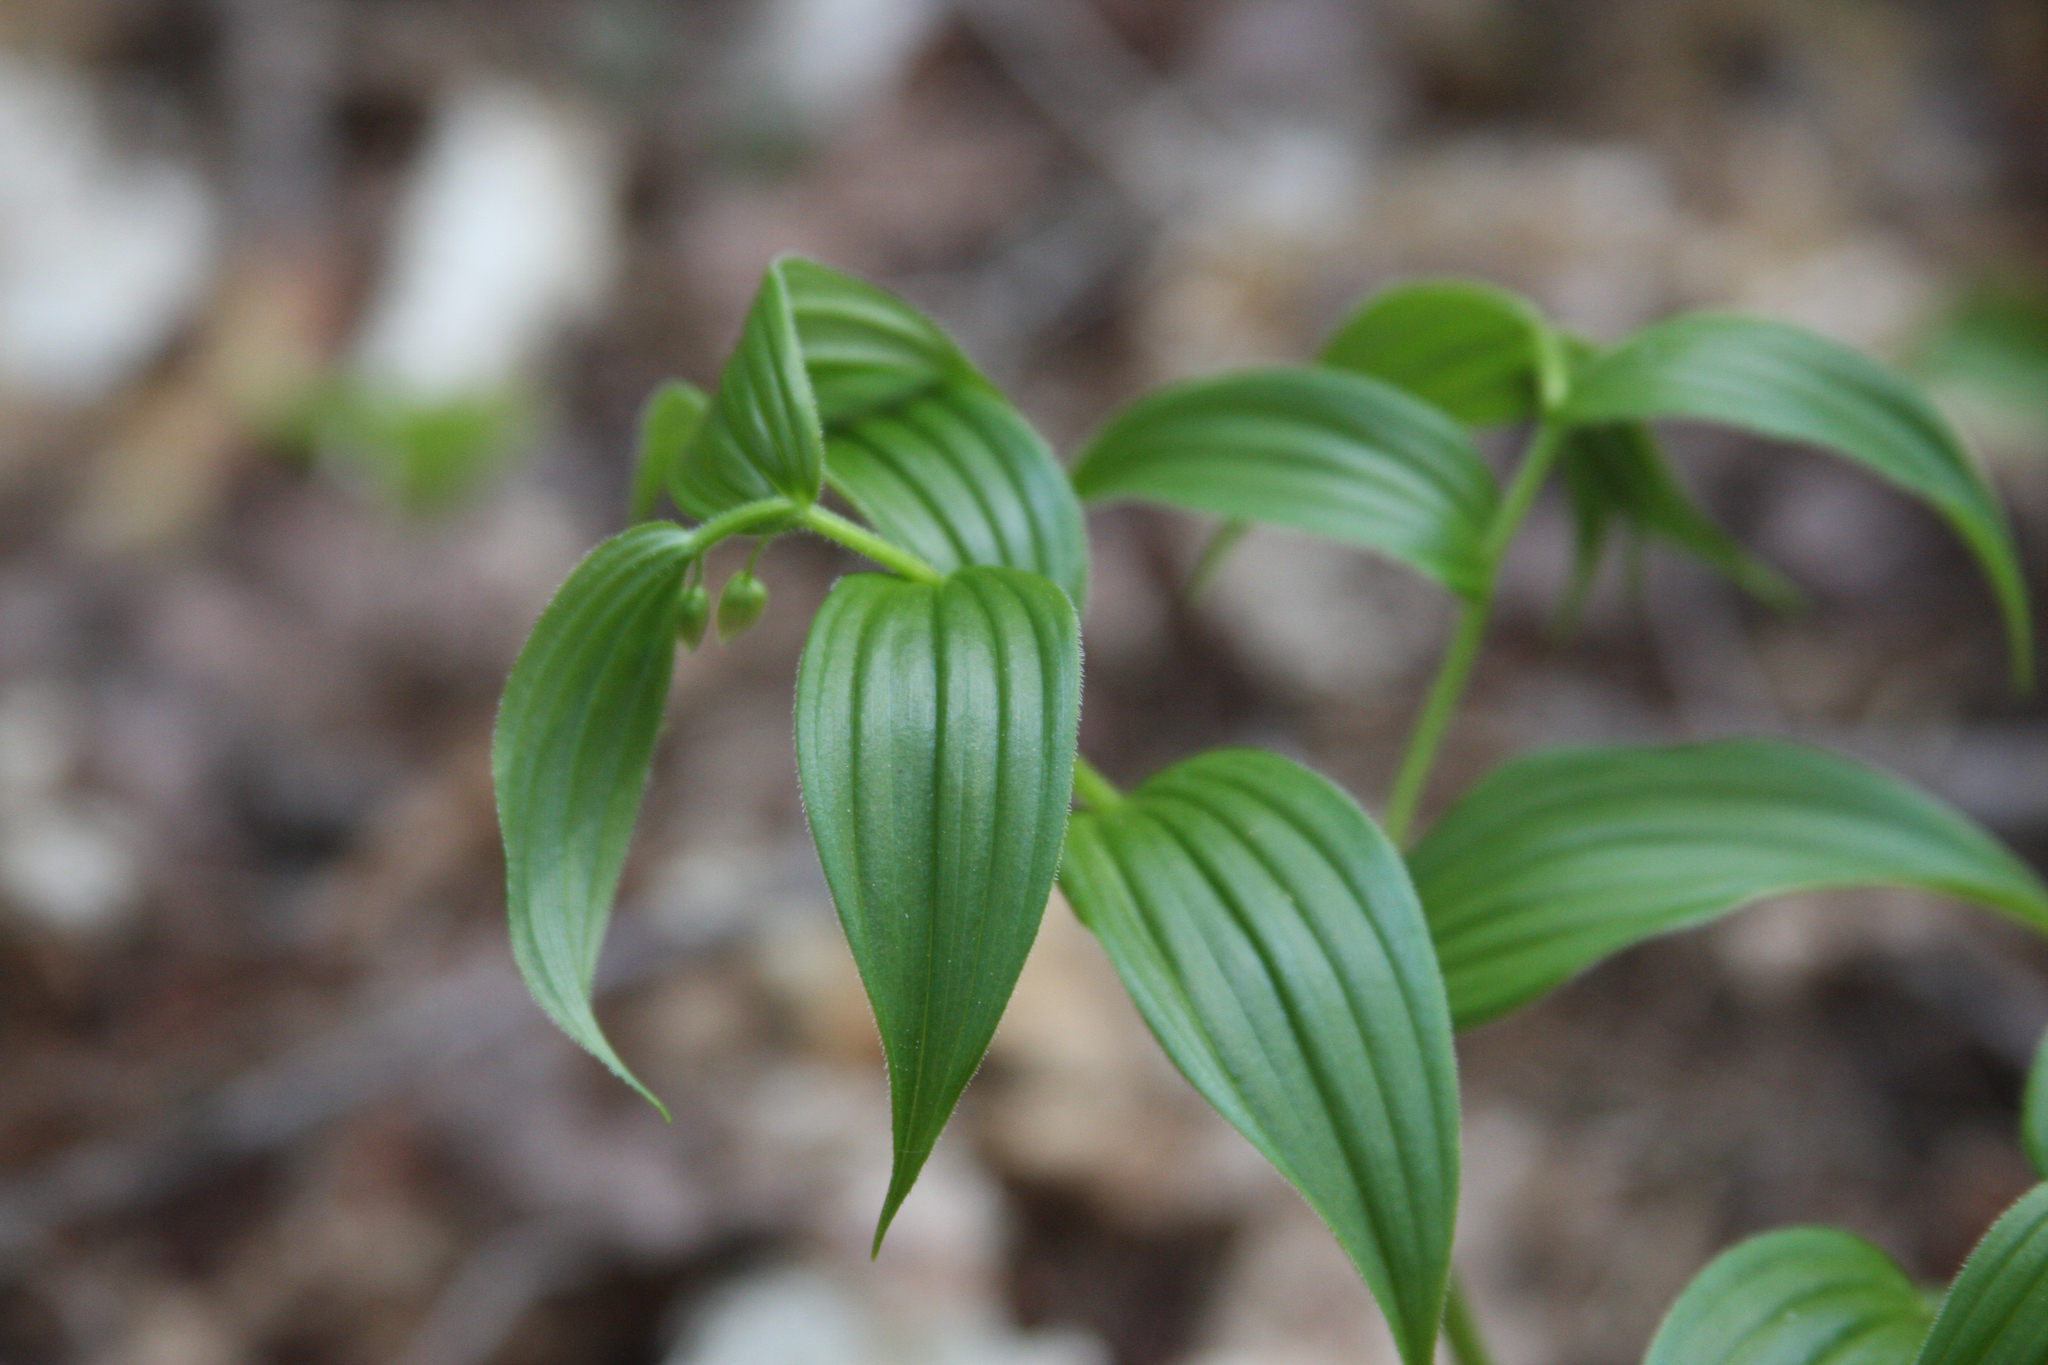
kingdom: Plantae
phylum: Tracheophyta
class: Liliopsida
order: Liliales
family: Liliaceae
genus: Streptopus
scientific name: Streptopus lanceolatus
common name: Rose mandarin
